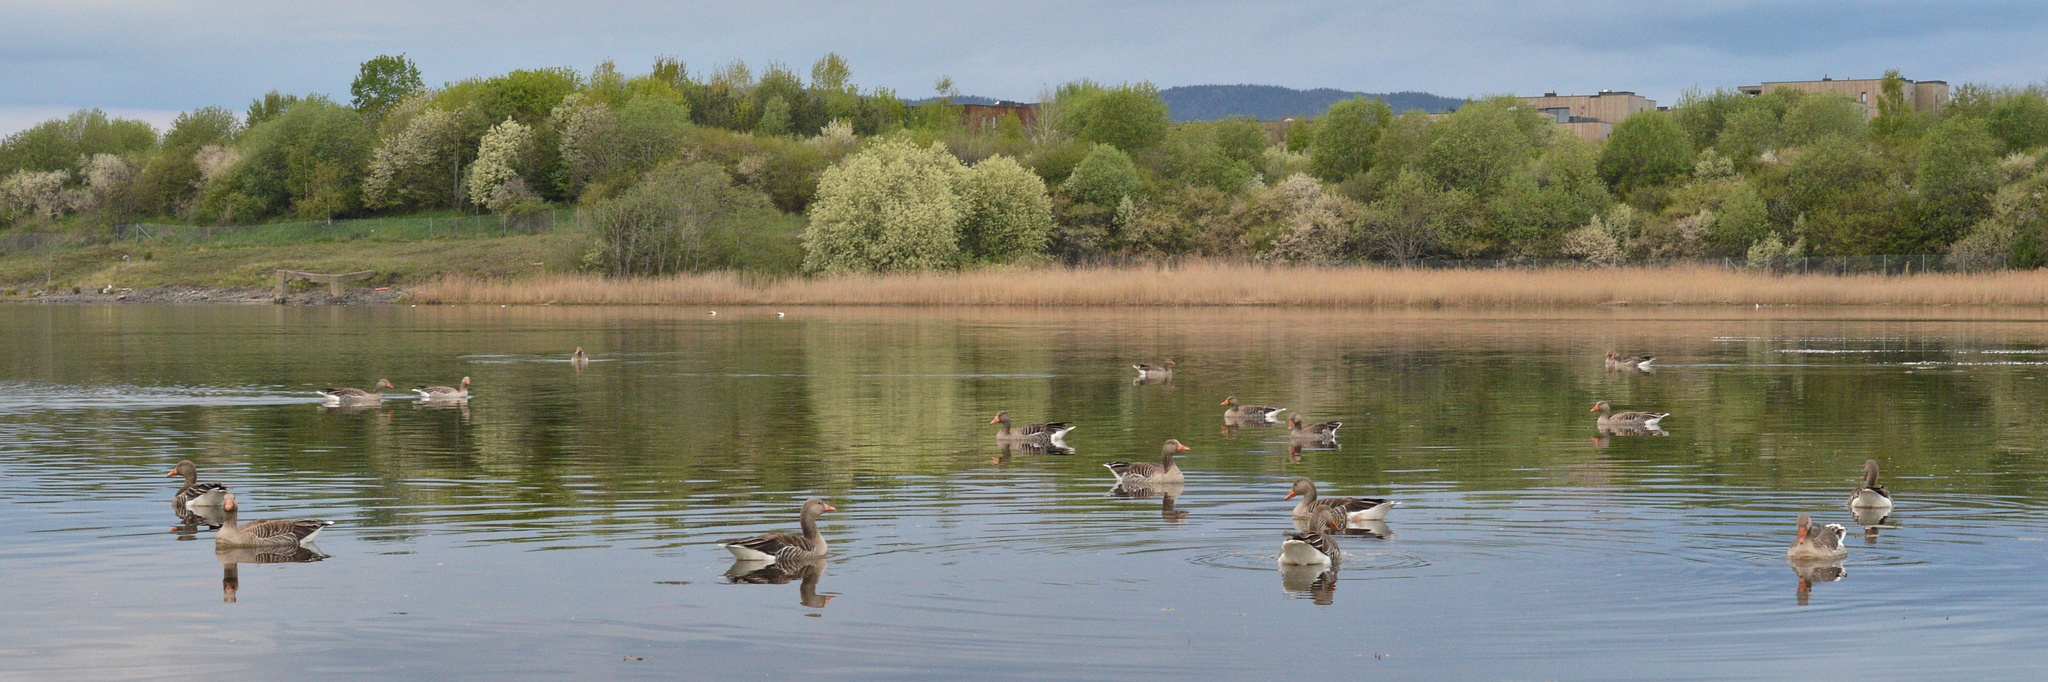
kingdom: Animalia
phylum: Chordata
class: Aves
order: Anseriformes
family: Anatidae
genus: Anser
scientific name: Anser anser
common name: Greylag goose
